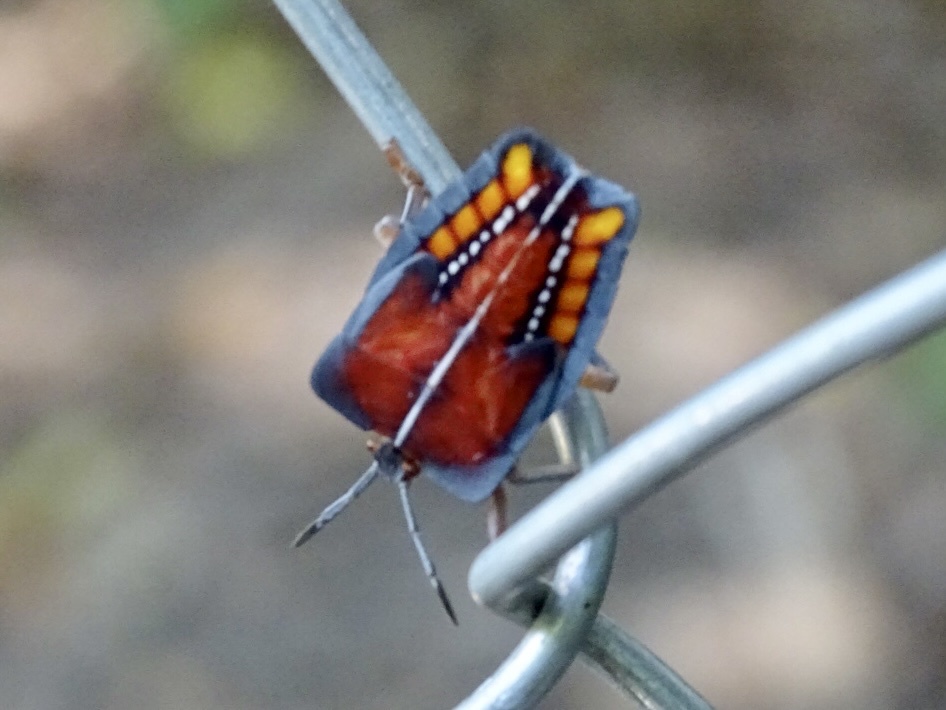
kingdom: Animalia
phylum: Arthropoda
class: Insecta
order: Hemiptera
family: Tessaratomidae
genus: Tessaratoma
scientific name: Tessaratoma papillosa
